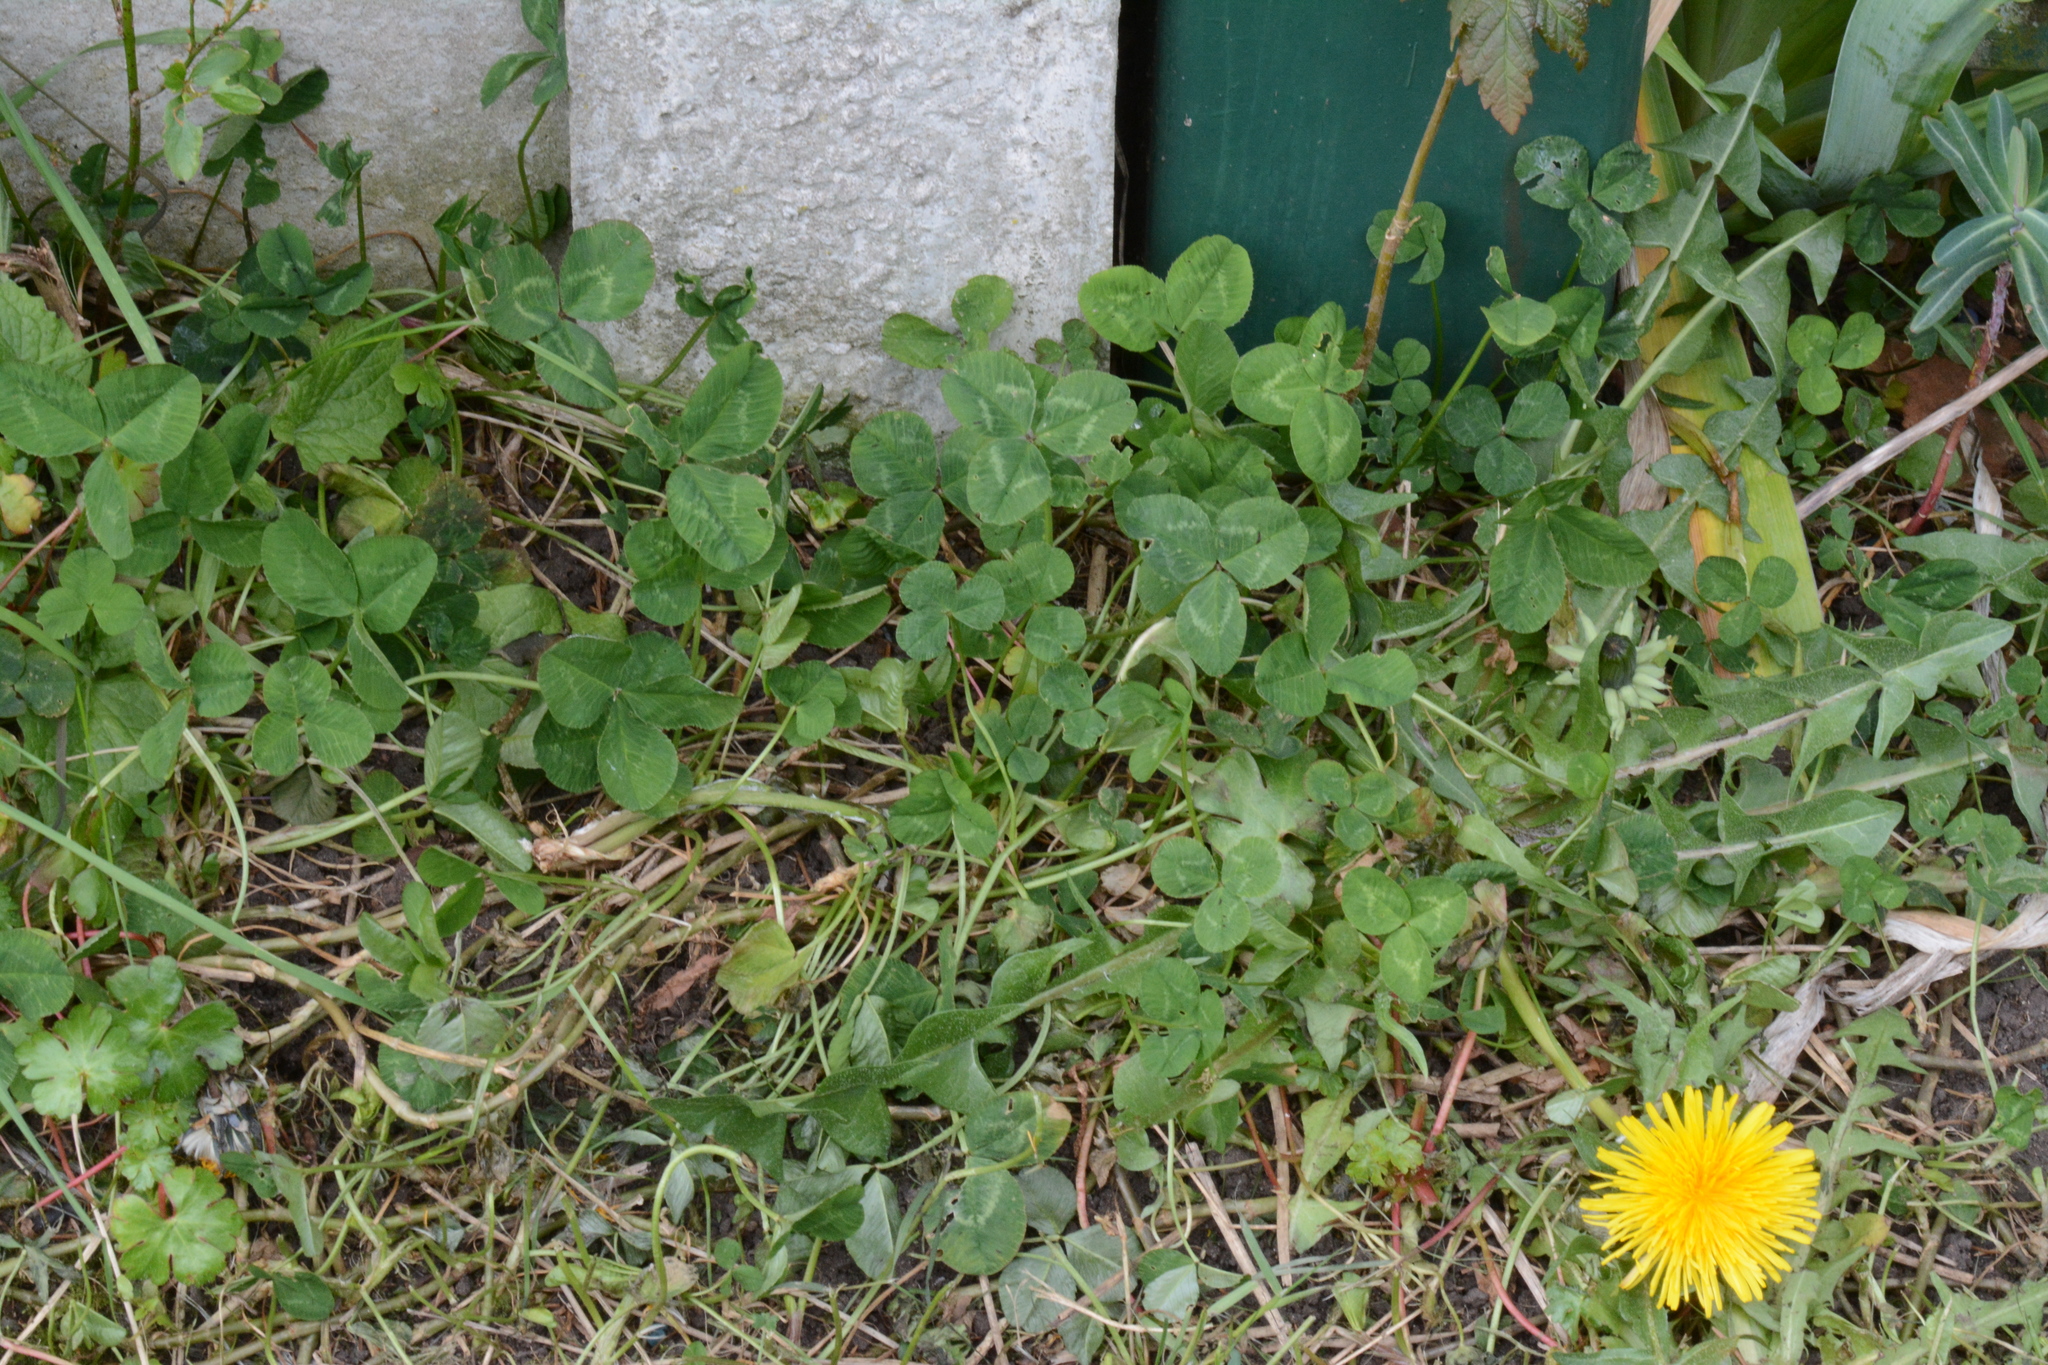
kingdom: Plantae
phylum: Tracheophyta
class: Magnoliopsida
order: Fabales
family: Fabaceae
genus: Trifolium
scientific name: Trifolium repens
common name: White clover
